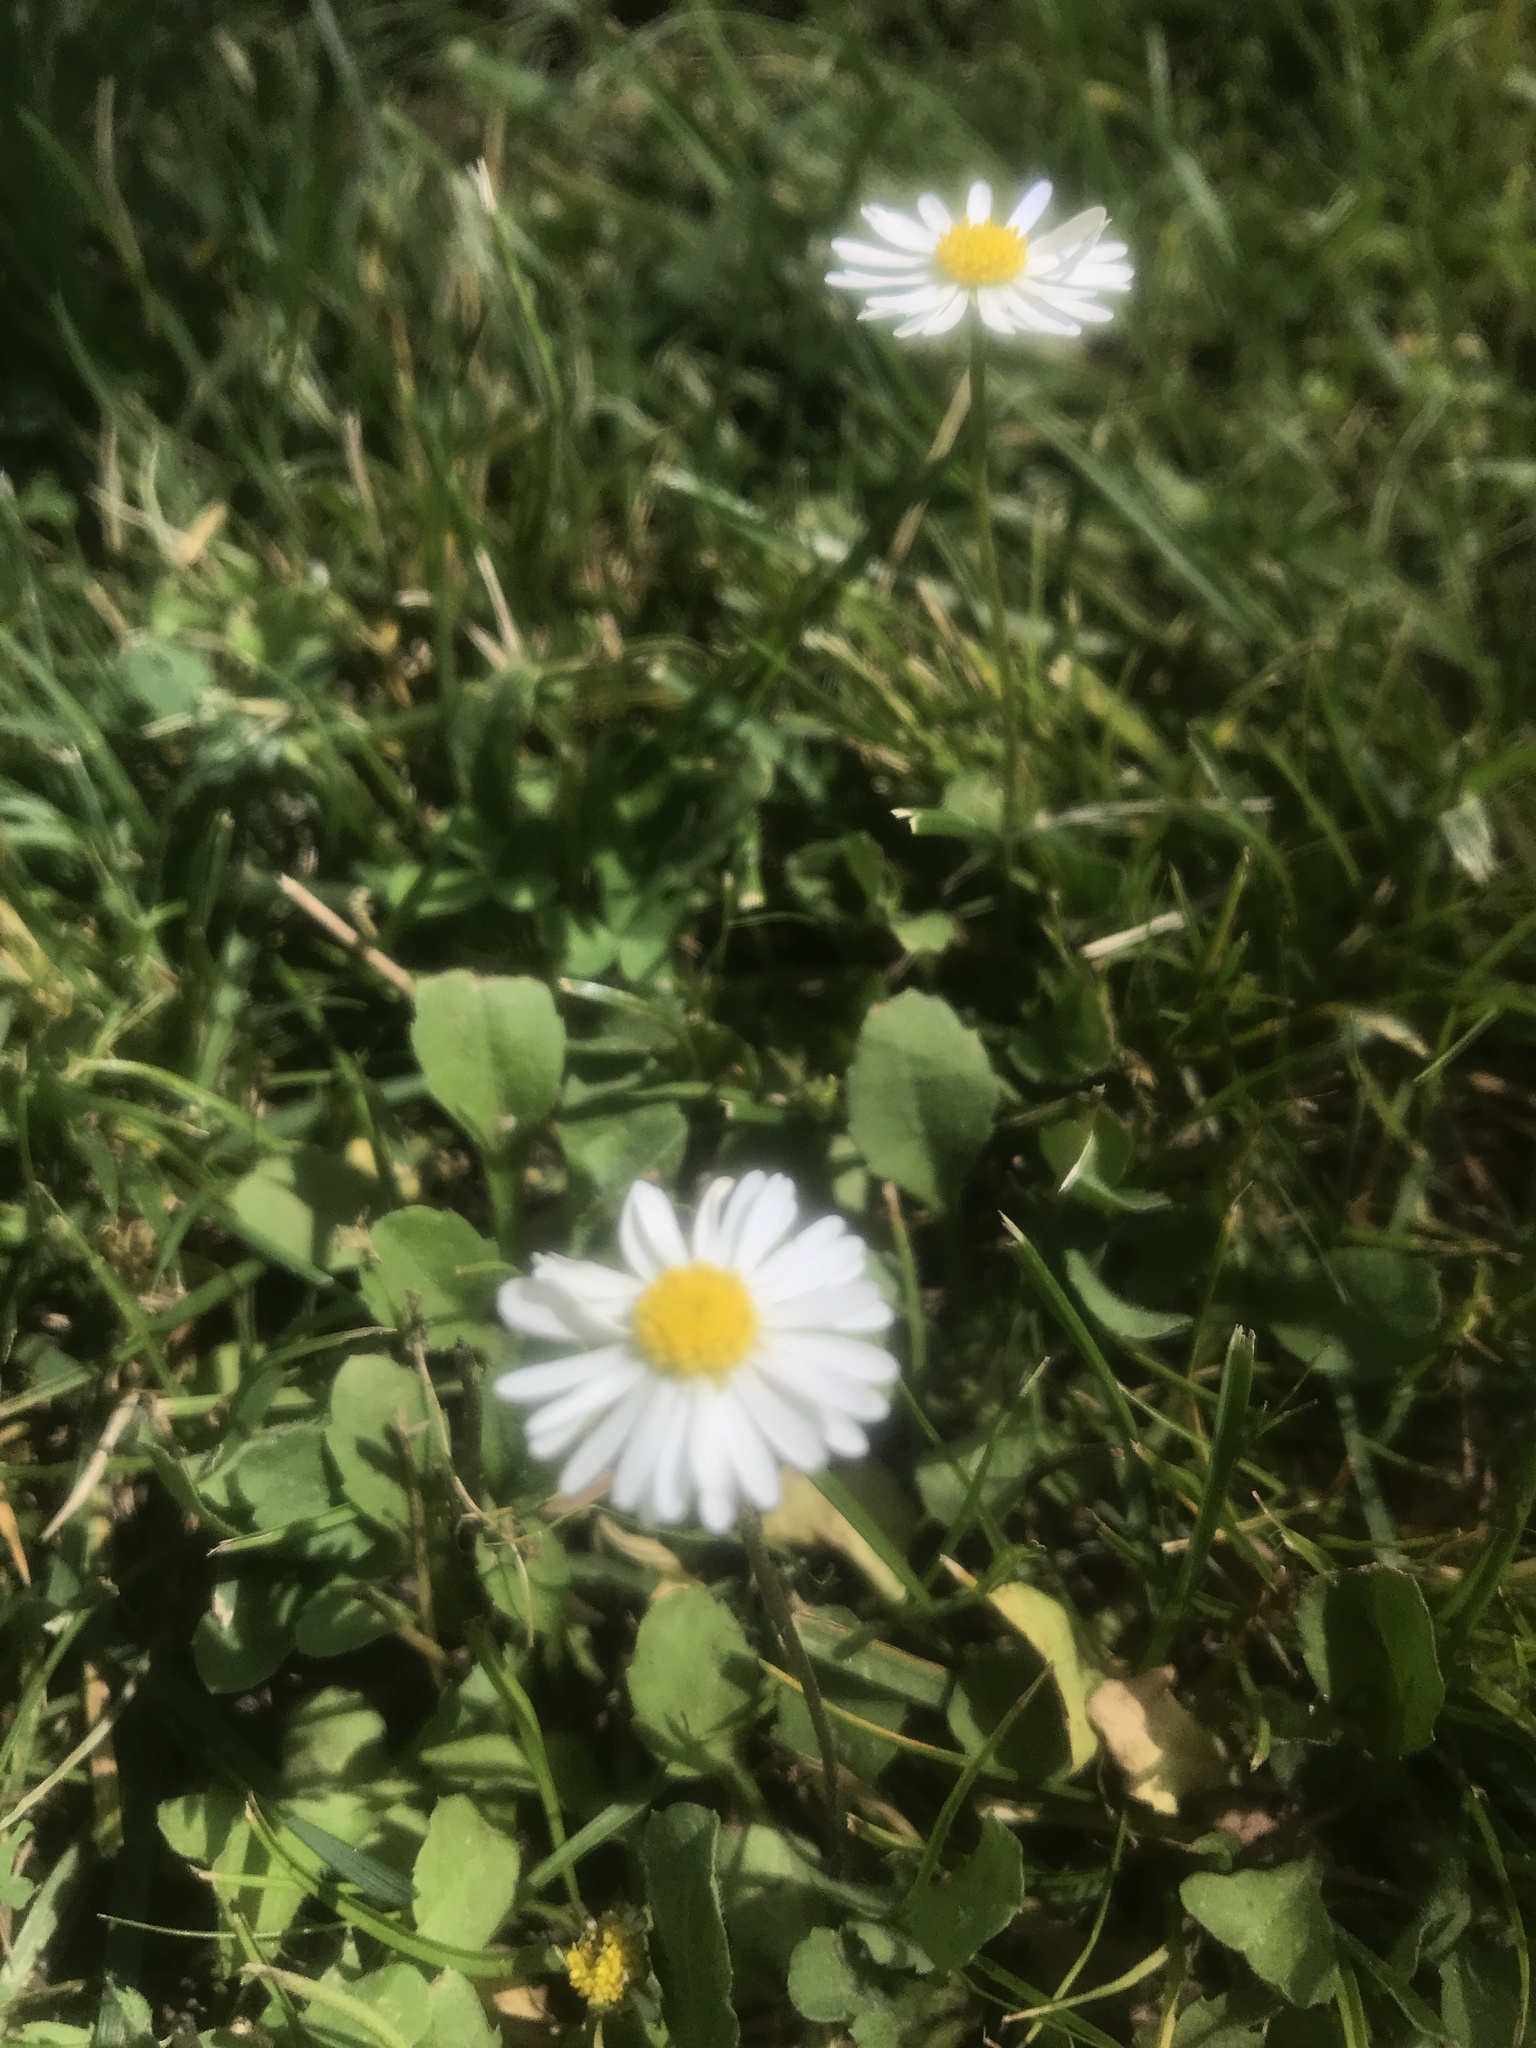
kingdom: Plantae
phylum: Tracheophyta
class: Magnoliopsida
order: Asterales
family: Asteraceae
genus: Bellis
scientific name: Bellis perennis
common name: Lawndaisy
